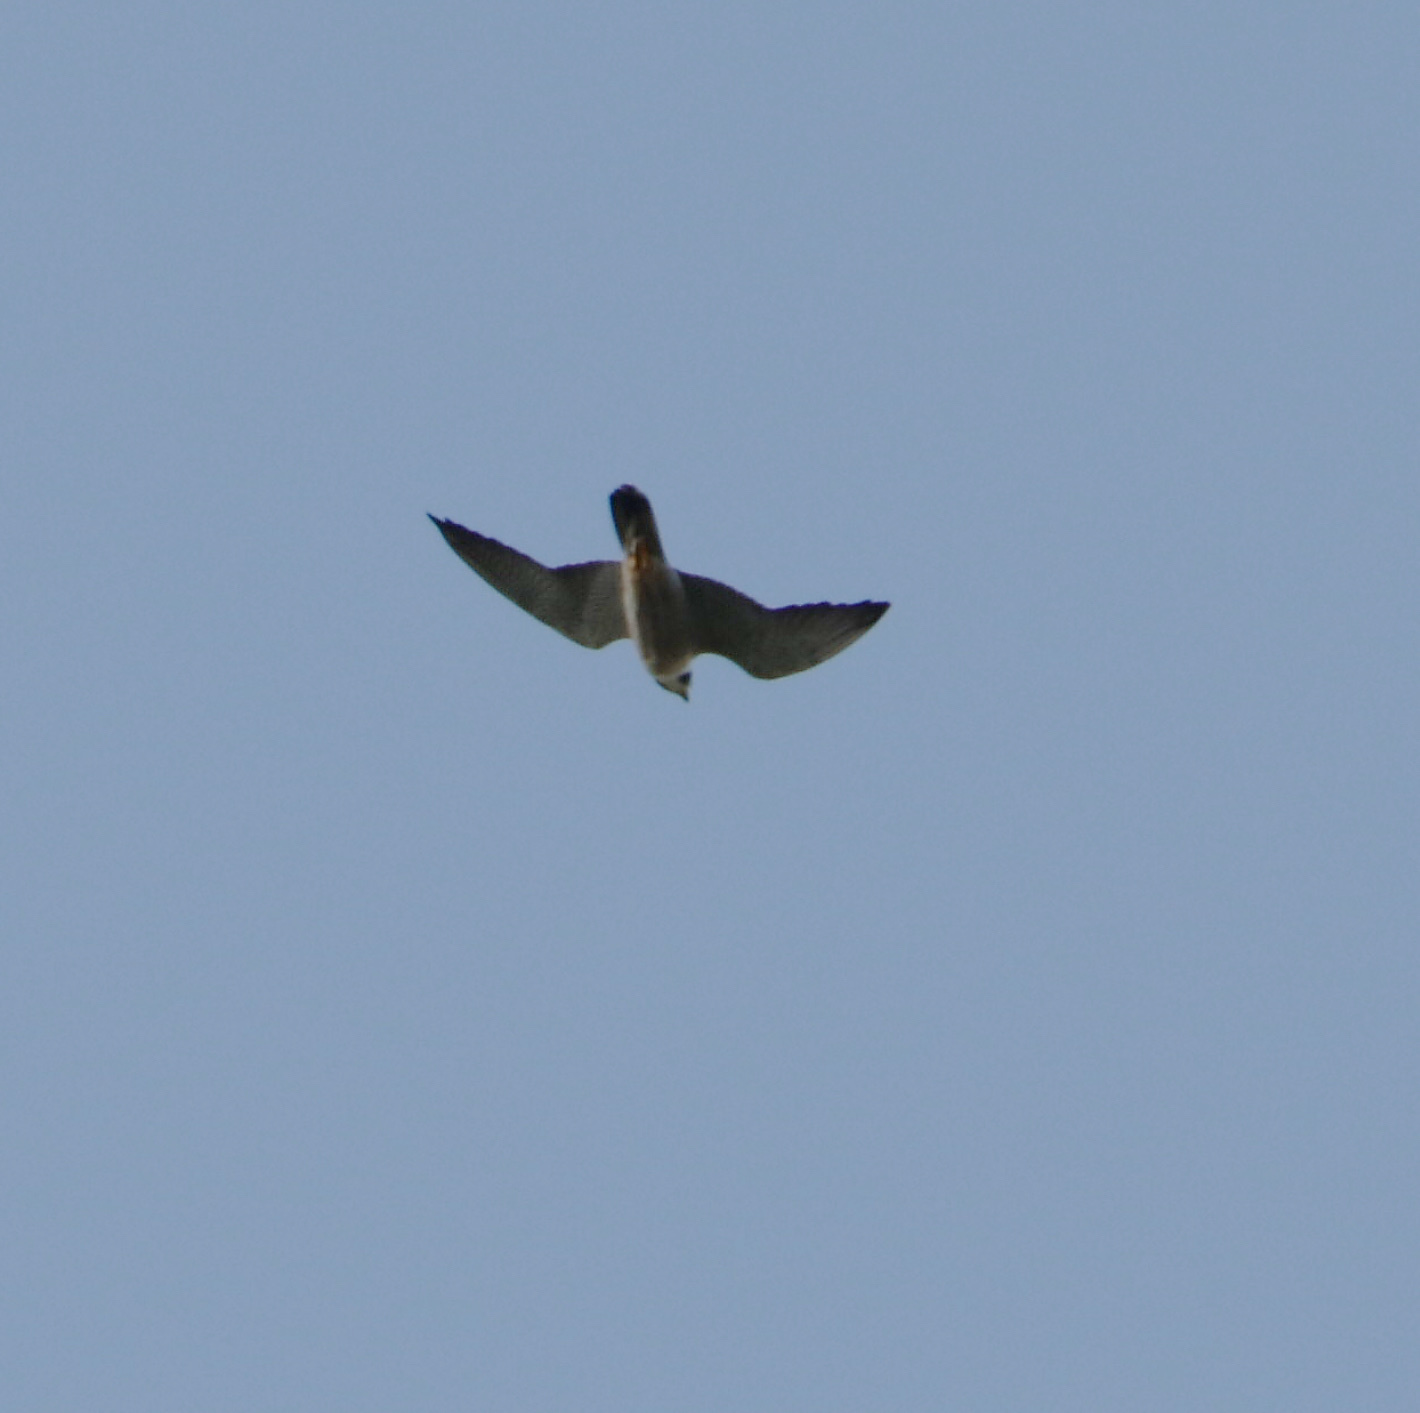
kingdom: Animalia
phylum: Chordata
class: Aves
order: Falconiformes
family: Falconidae
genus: Falco
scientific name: Falco peregrinus
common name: Peregrine falcon
